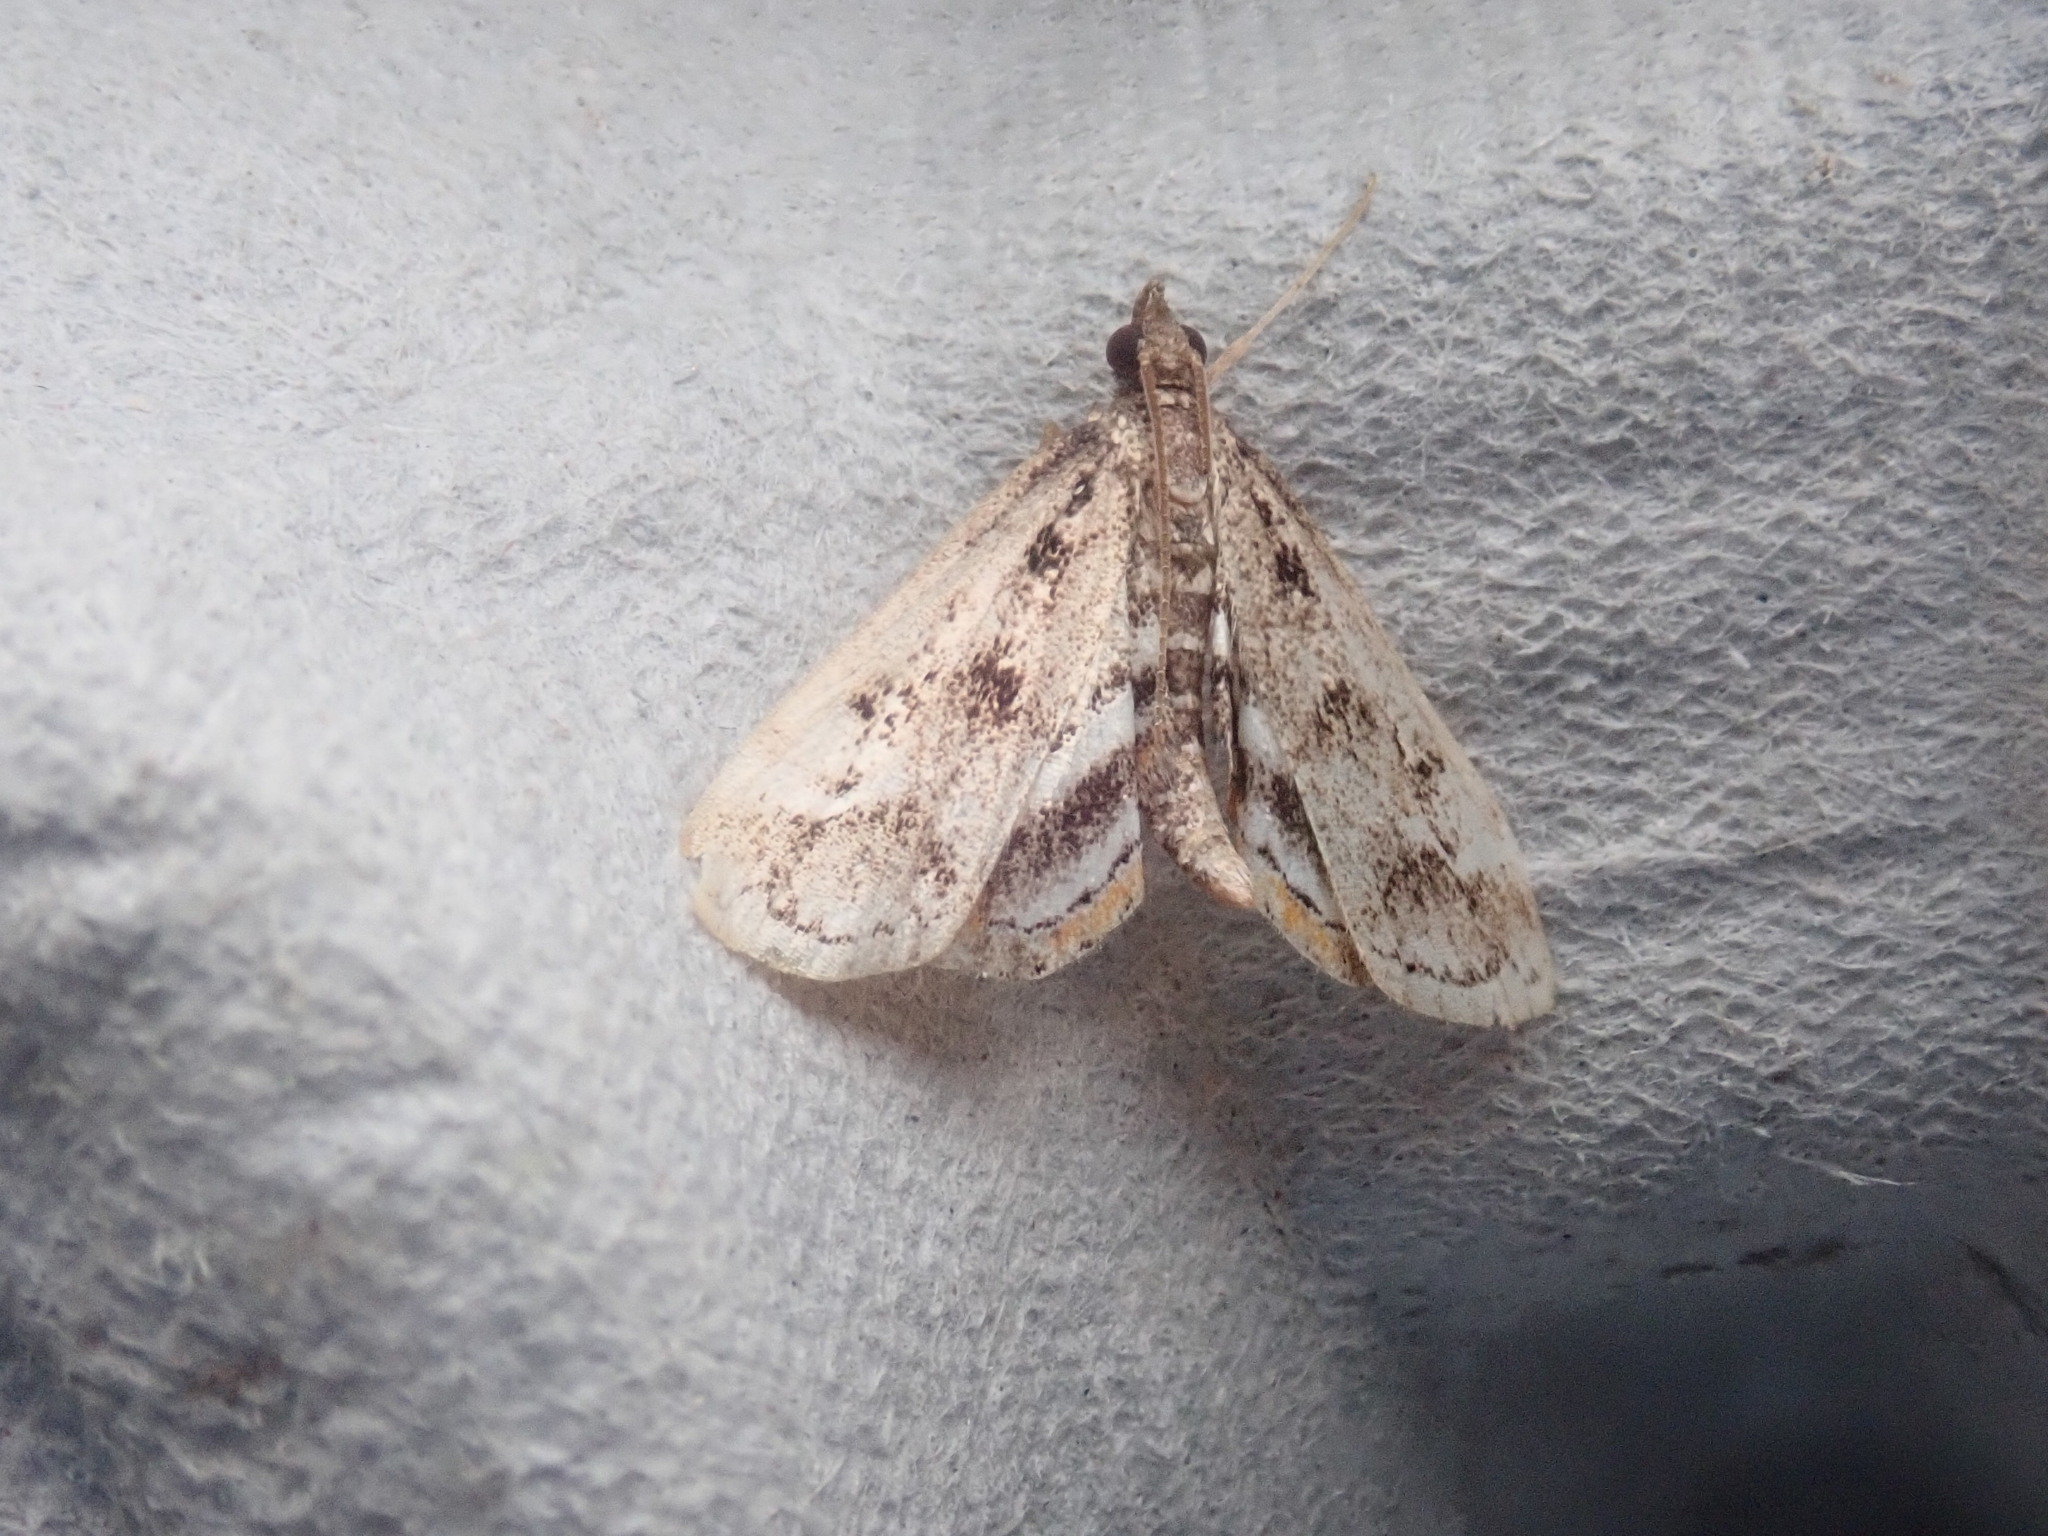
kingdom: Animalia
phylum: Arthropoda
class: Insecta
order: Lepidoptera
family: Crambidae
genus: Parapoynx
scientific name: Parapoynx obscuralis
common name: American china-mark
